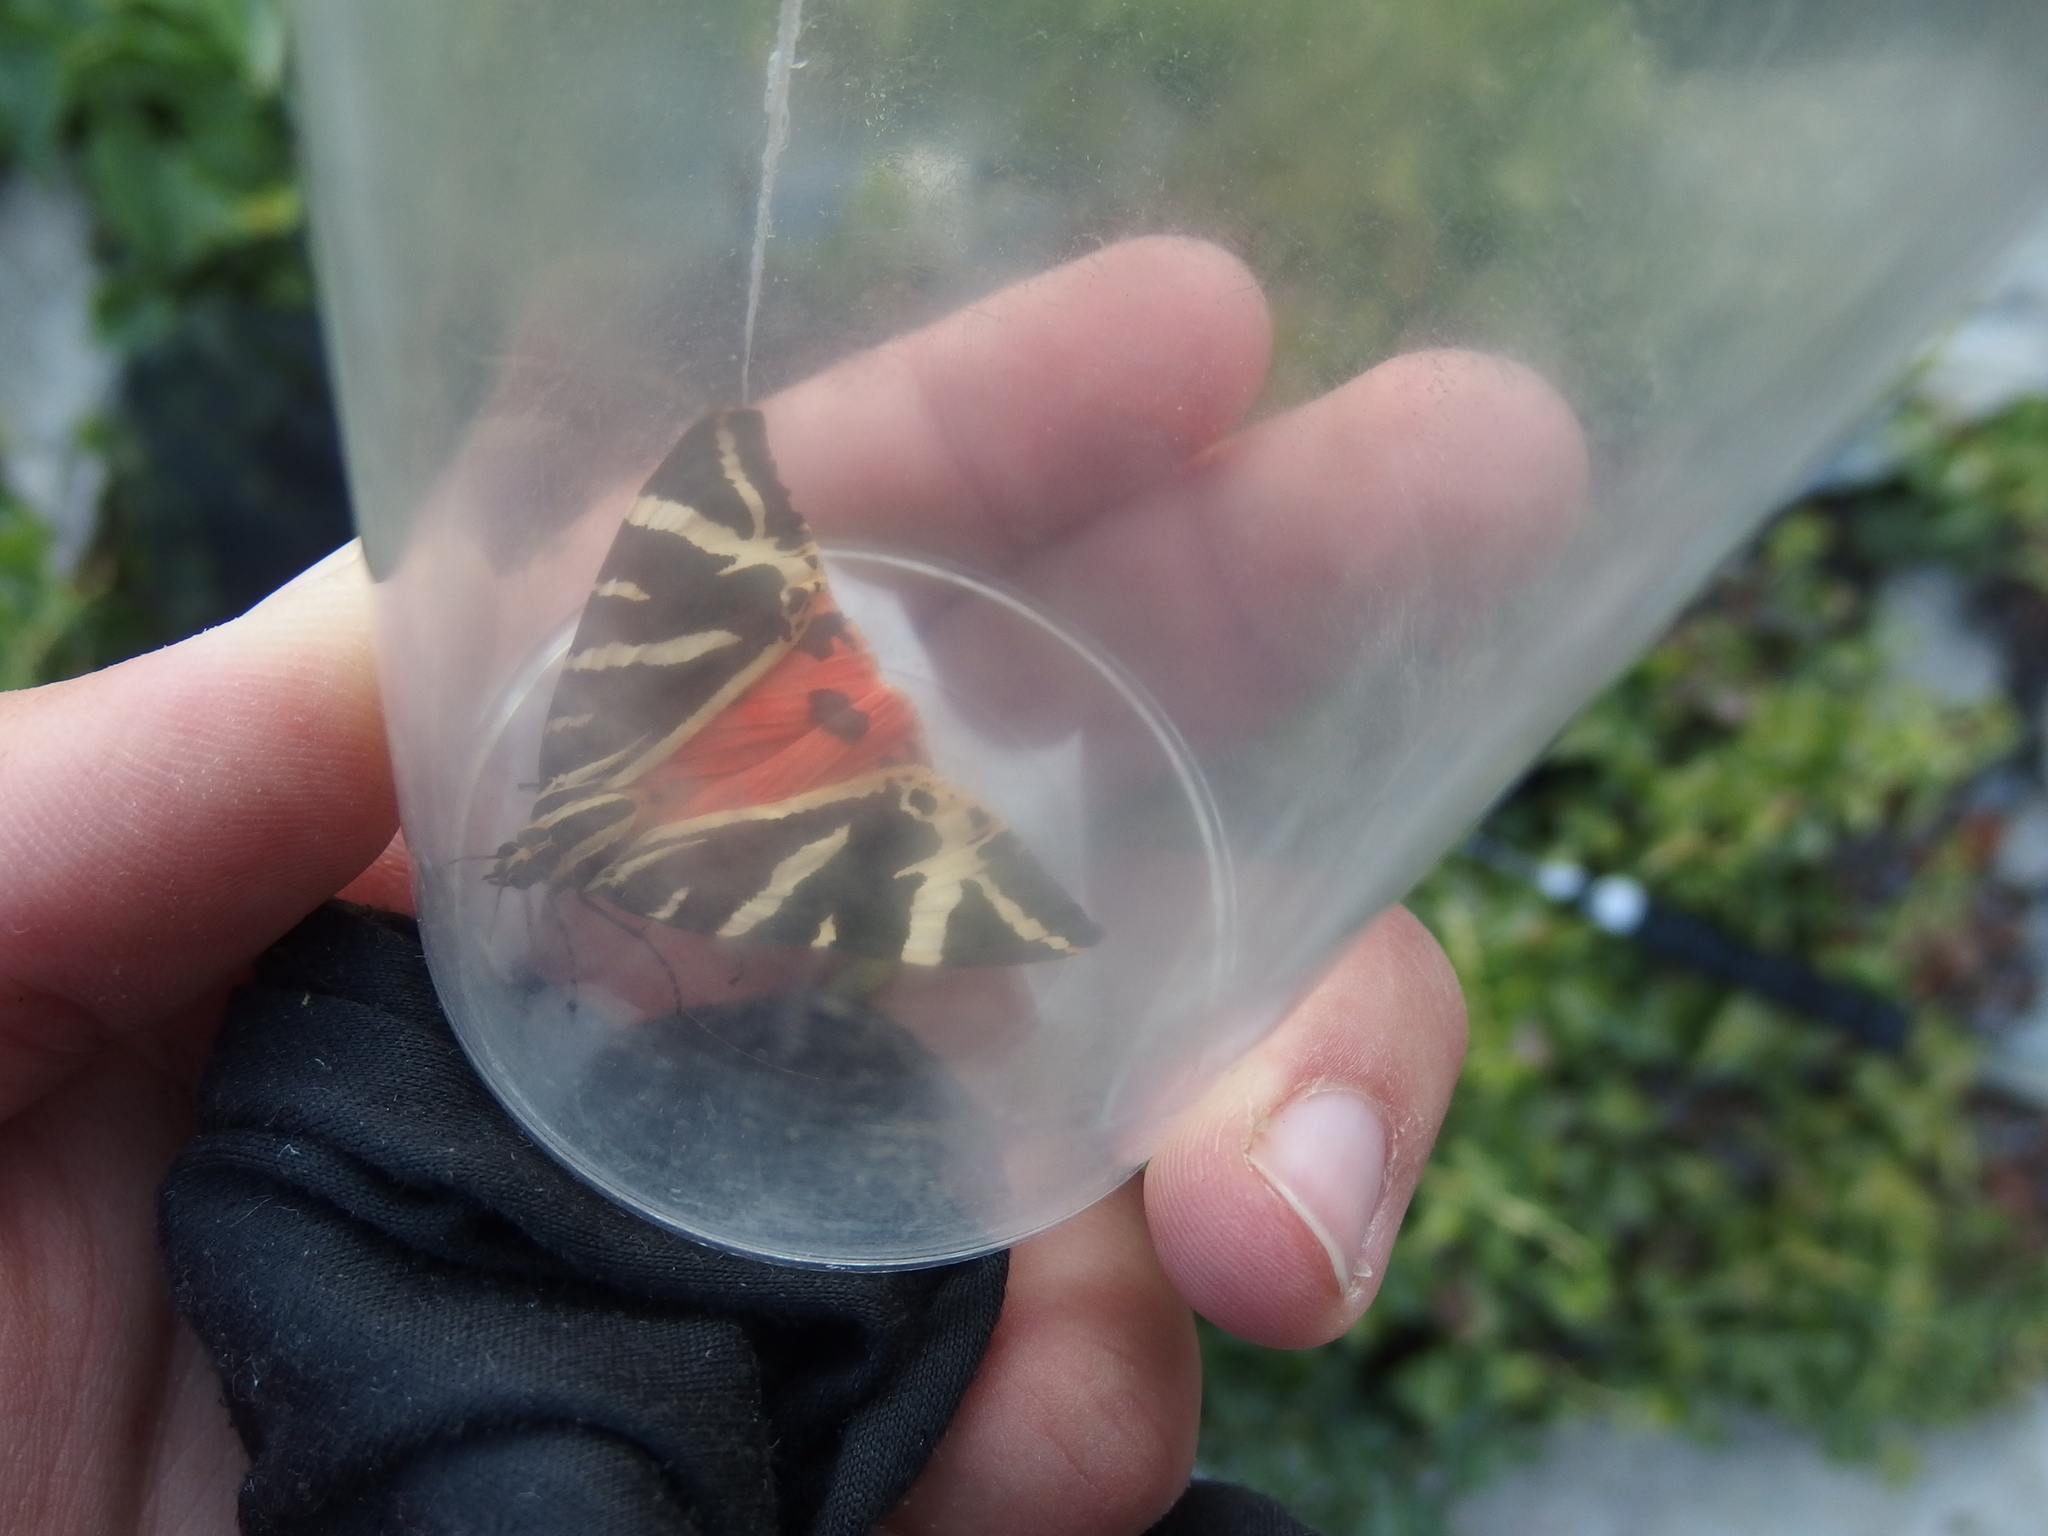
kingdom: Animalia
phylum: Arthropoda
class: Insecta
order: Lepidoptera
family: Erebidae
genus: Euplagia
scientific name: Euplagia quadripunctaria
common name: Jersey tiger
